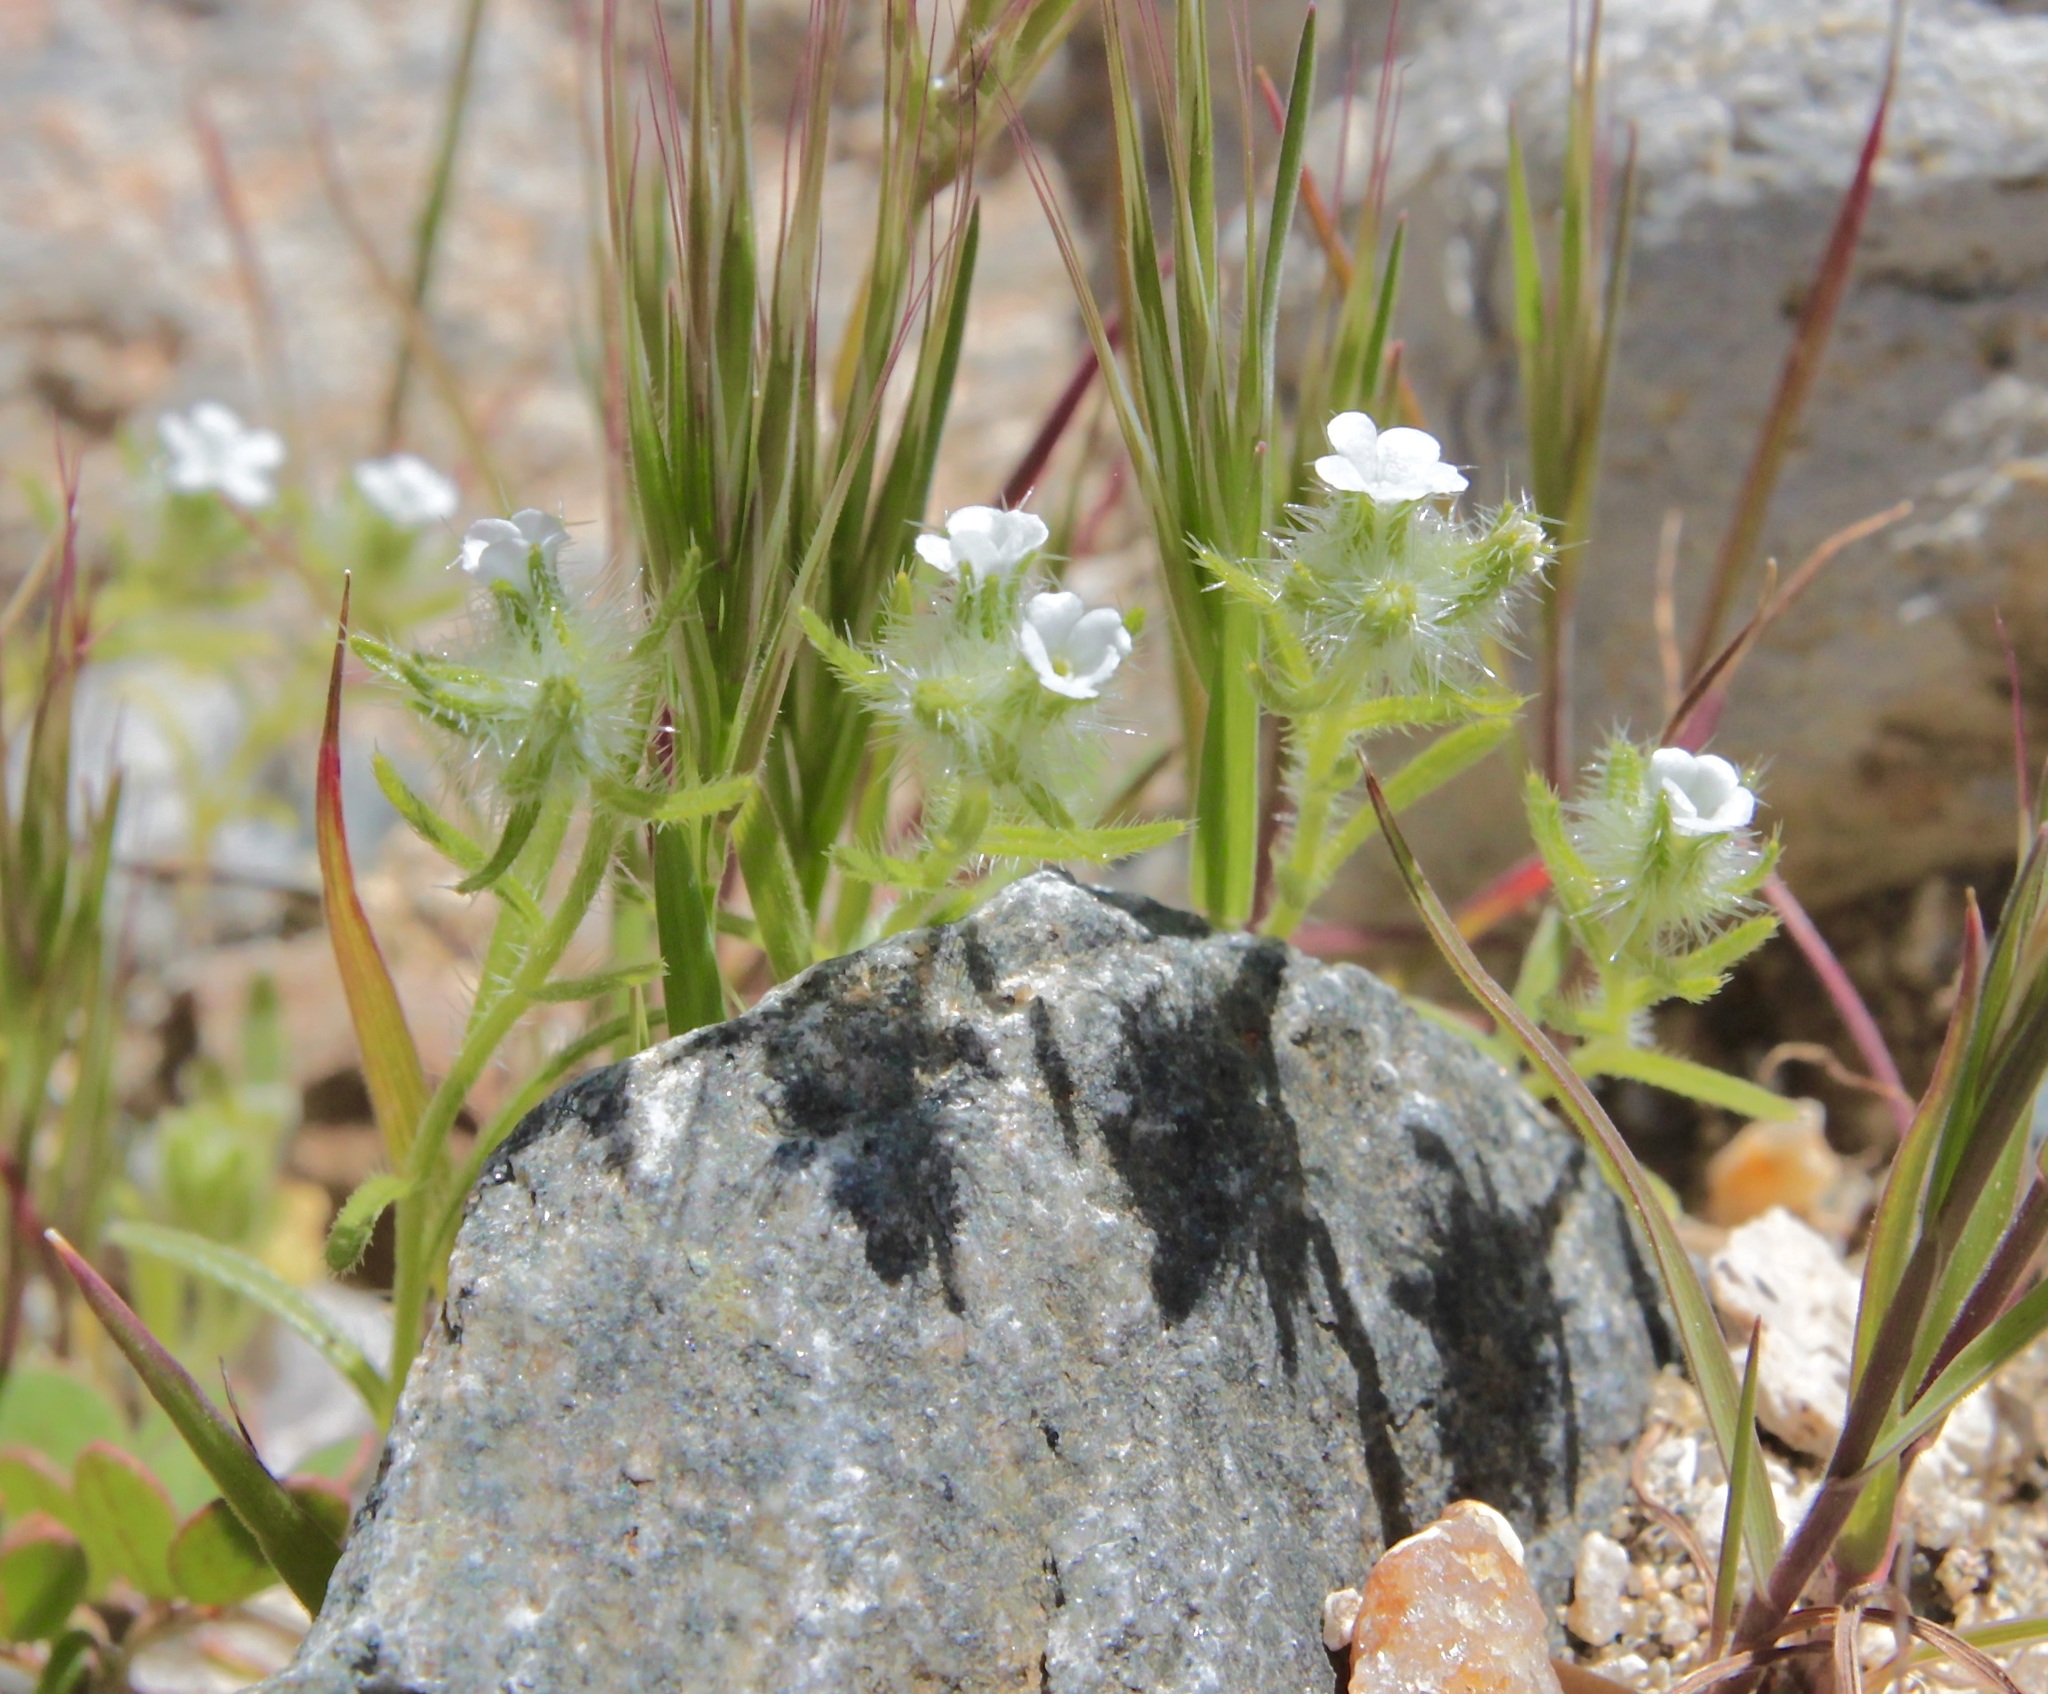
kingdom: Plantae
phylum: Tracheophyta
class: Magnoliopsida
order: Boraginales
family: Boraginaceae
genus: Cryptantha
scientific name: Cryptantha barbigera
